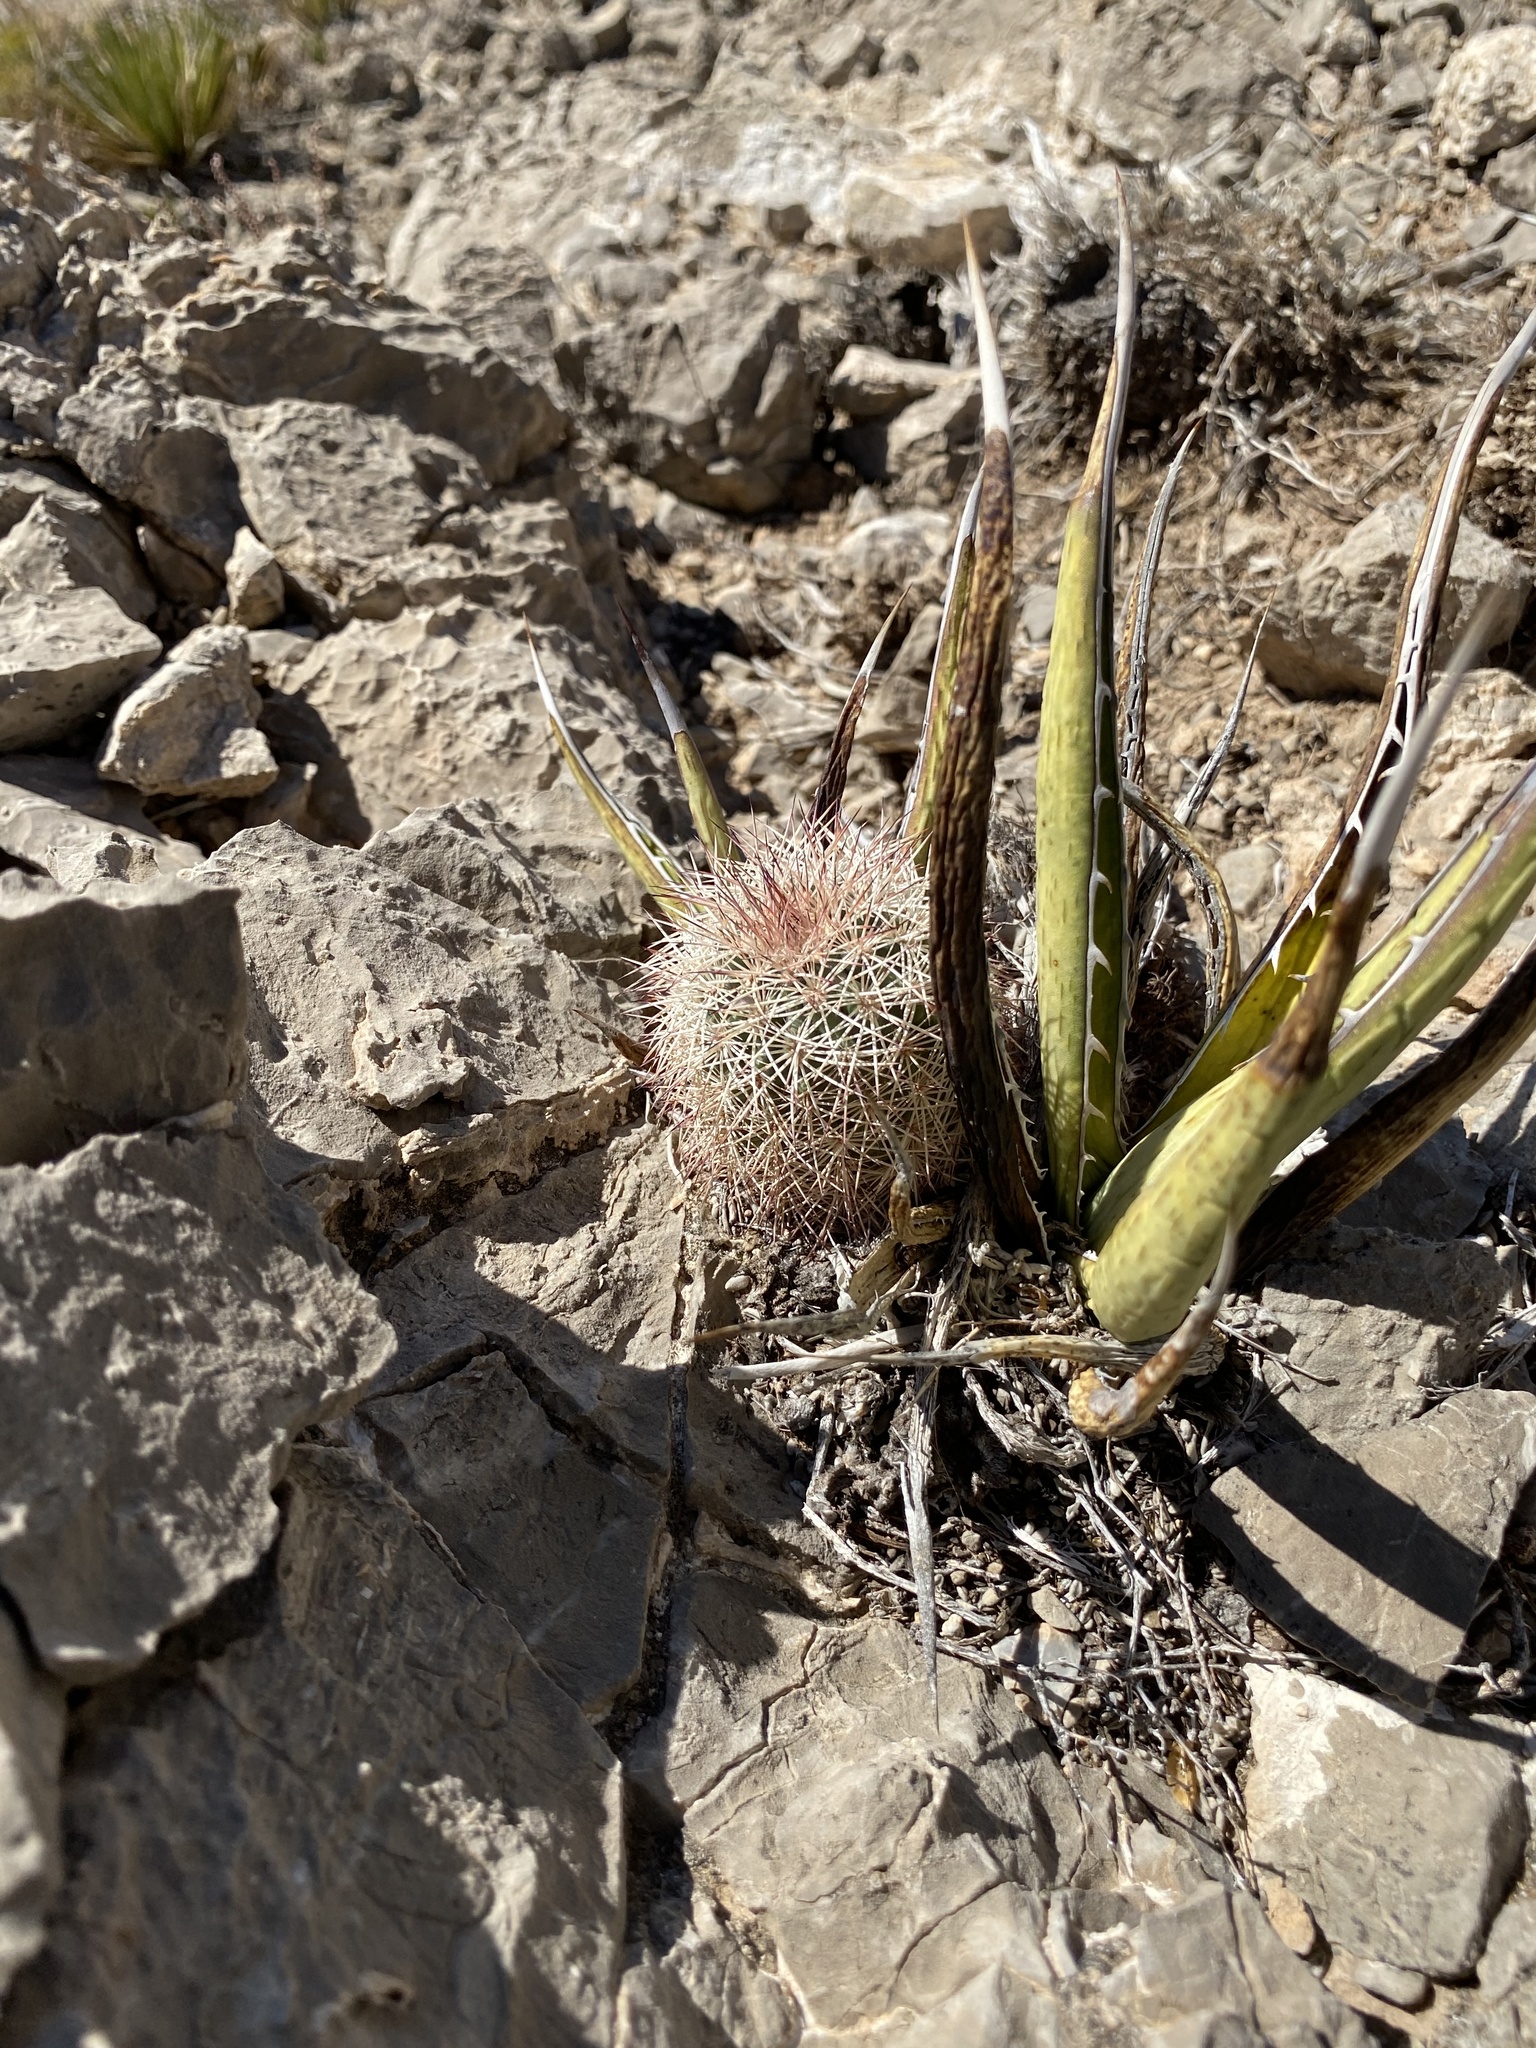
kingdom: Plantae
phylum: Tracheophyta
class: Magnoliopsida
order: Caryophyllales
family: Cactaceae
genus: Echinocereus
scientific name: Echinocereus dasyacanthus
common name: Spiny hedgehog cactus
